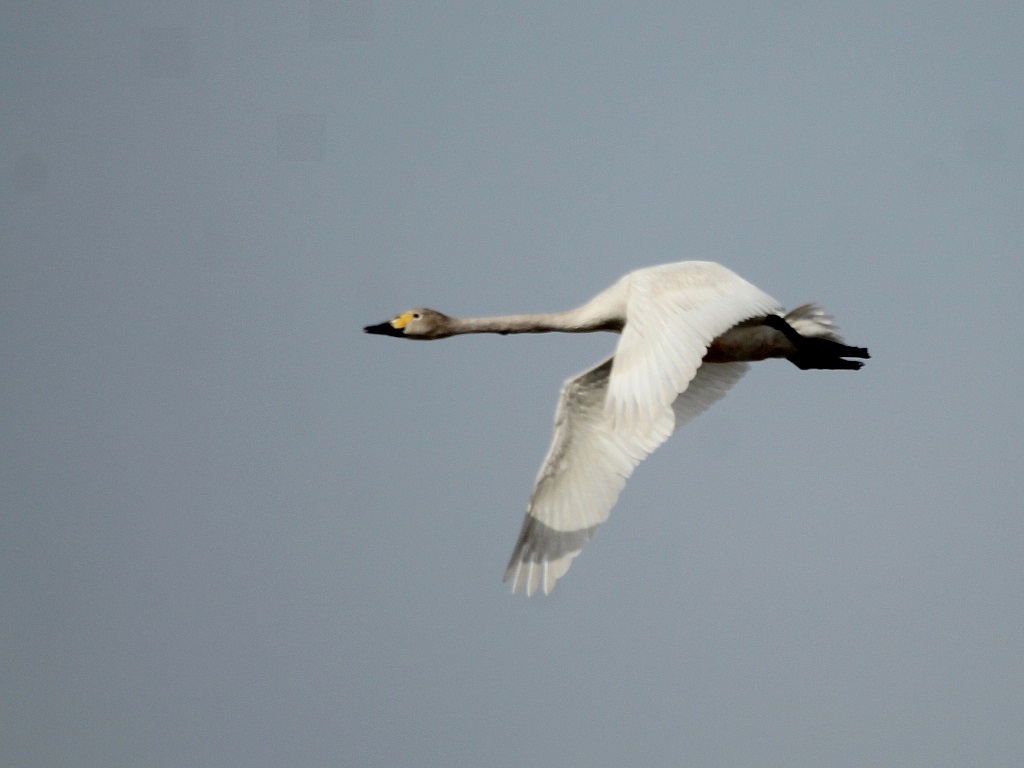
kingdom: Animalia
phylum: Chordata
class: Aves
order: Anseriformes
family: Anatidae
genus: Cygnus
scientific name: Cygnus columbianus
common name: Tundra swan
